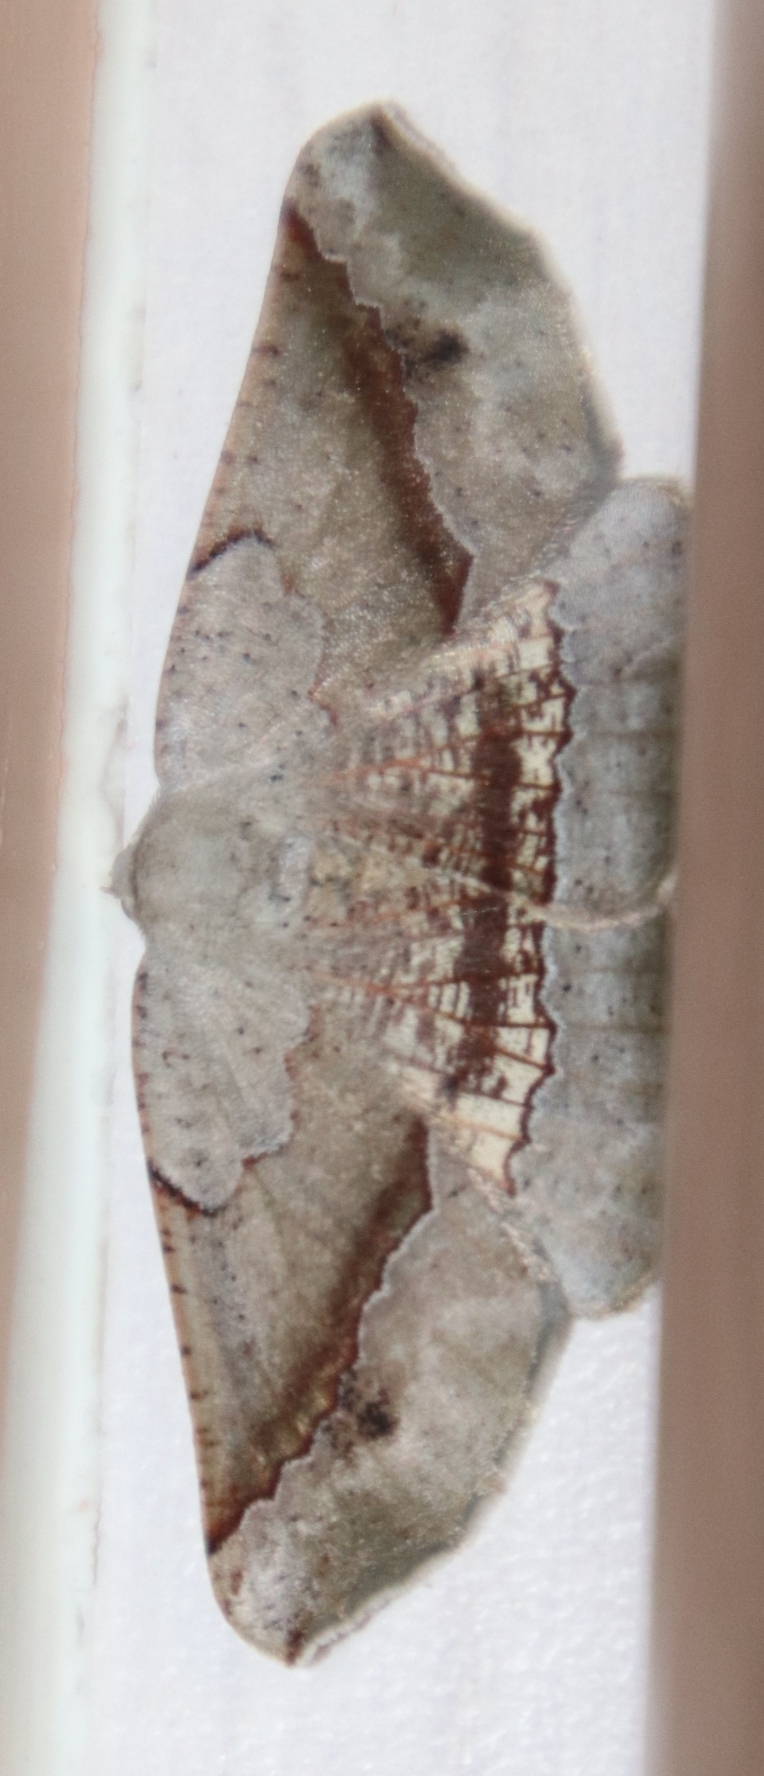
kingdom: Animalia
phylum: Arthropoda
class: Insecta
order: Lepidoptera
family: Geometridae
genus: Drepanogynis
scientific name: Drepanogynis mixtaria
